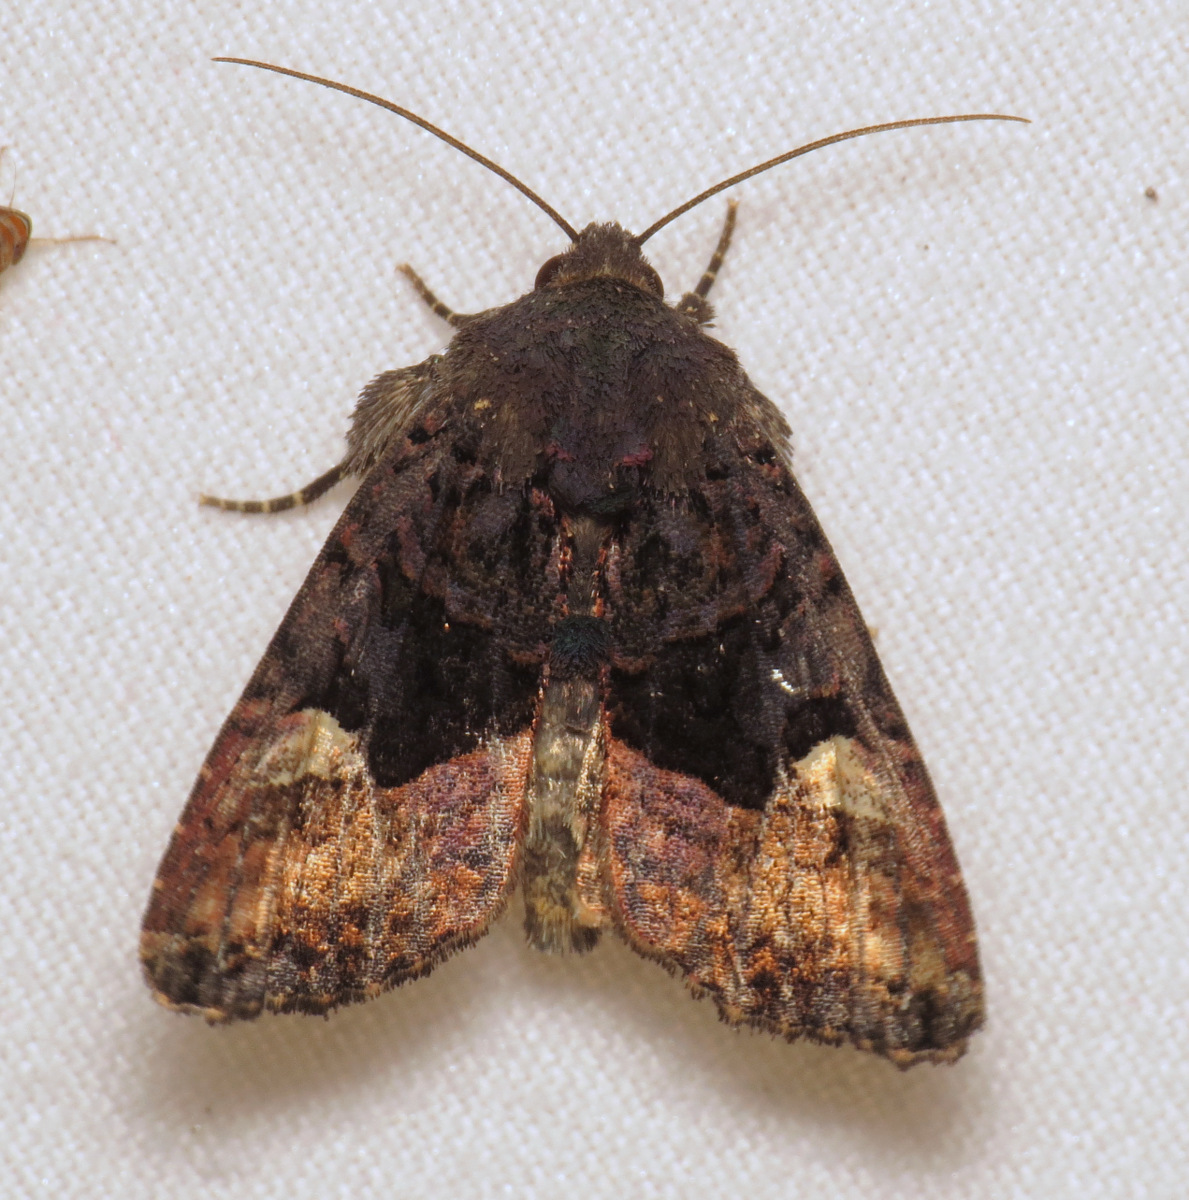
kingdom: Animalia
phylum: Arthropoda
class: Insecta
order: Lepidoptera
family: Noctuidae
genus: Euplexia
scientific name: Euplexia benesimilis
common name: American angle shades
